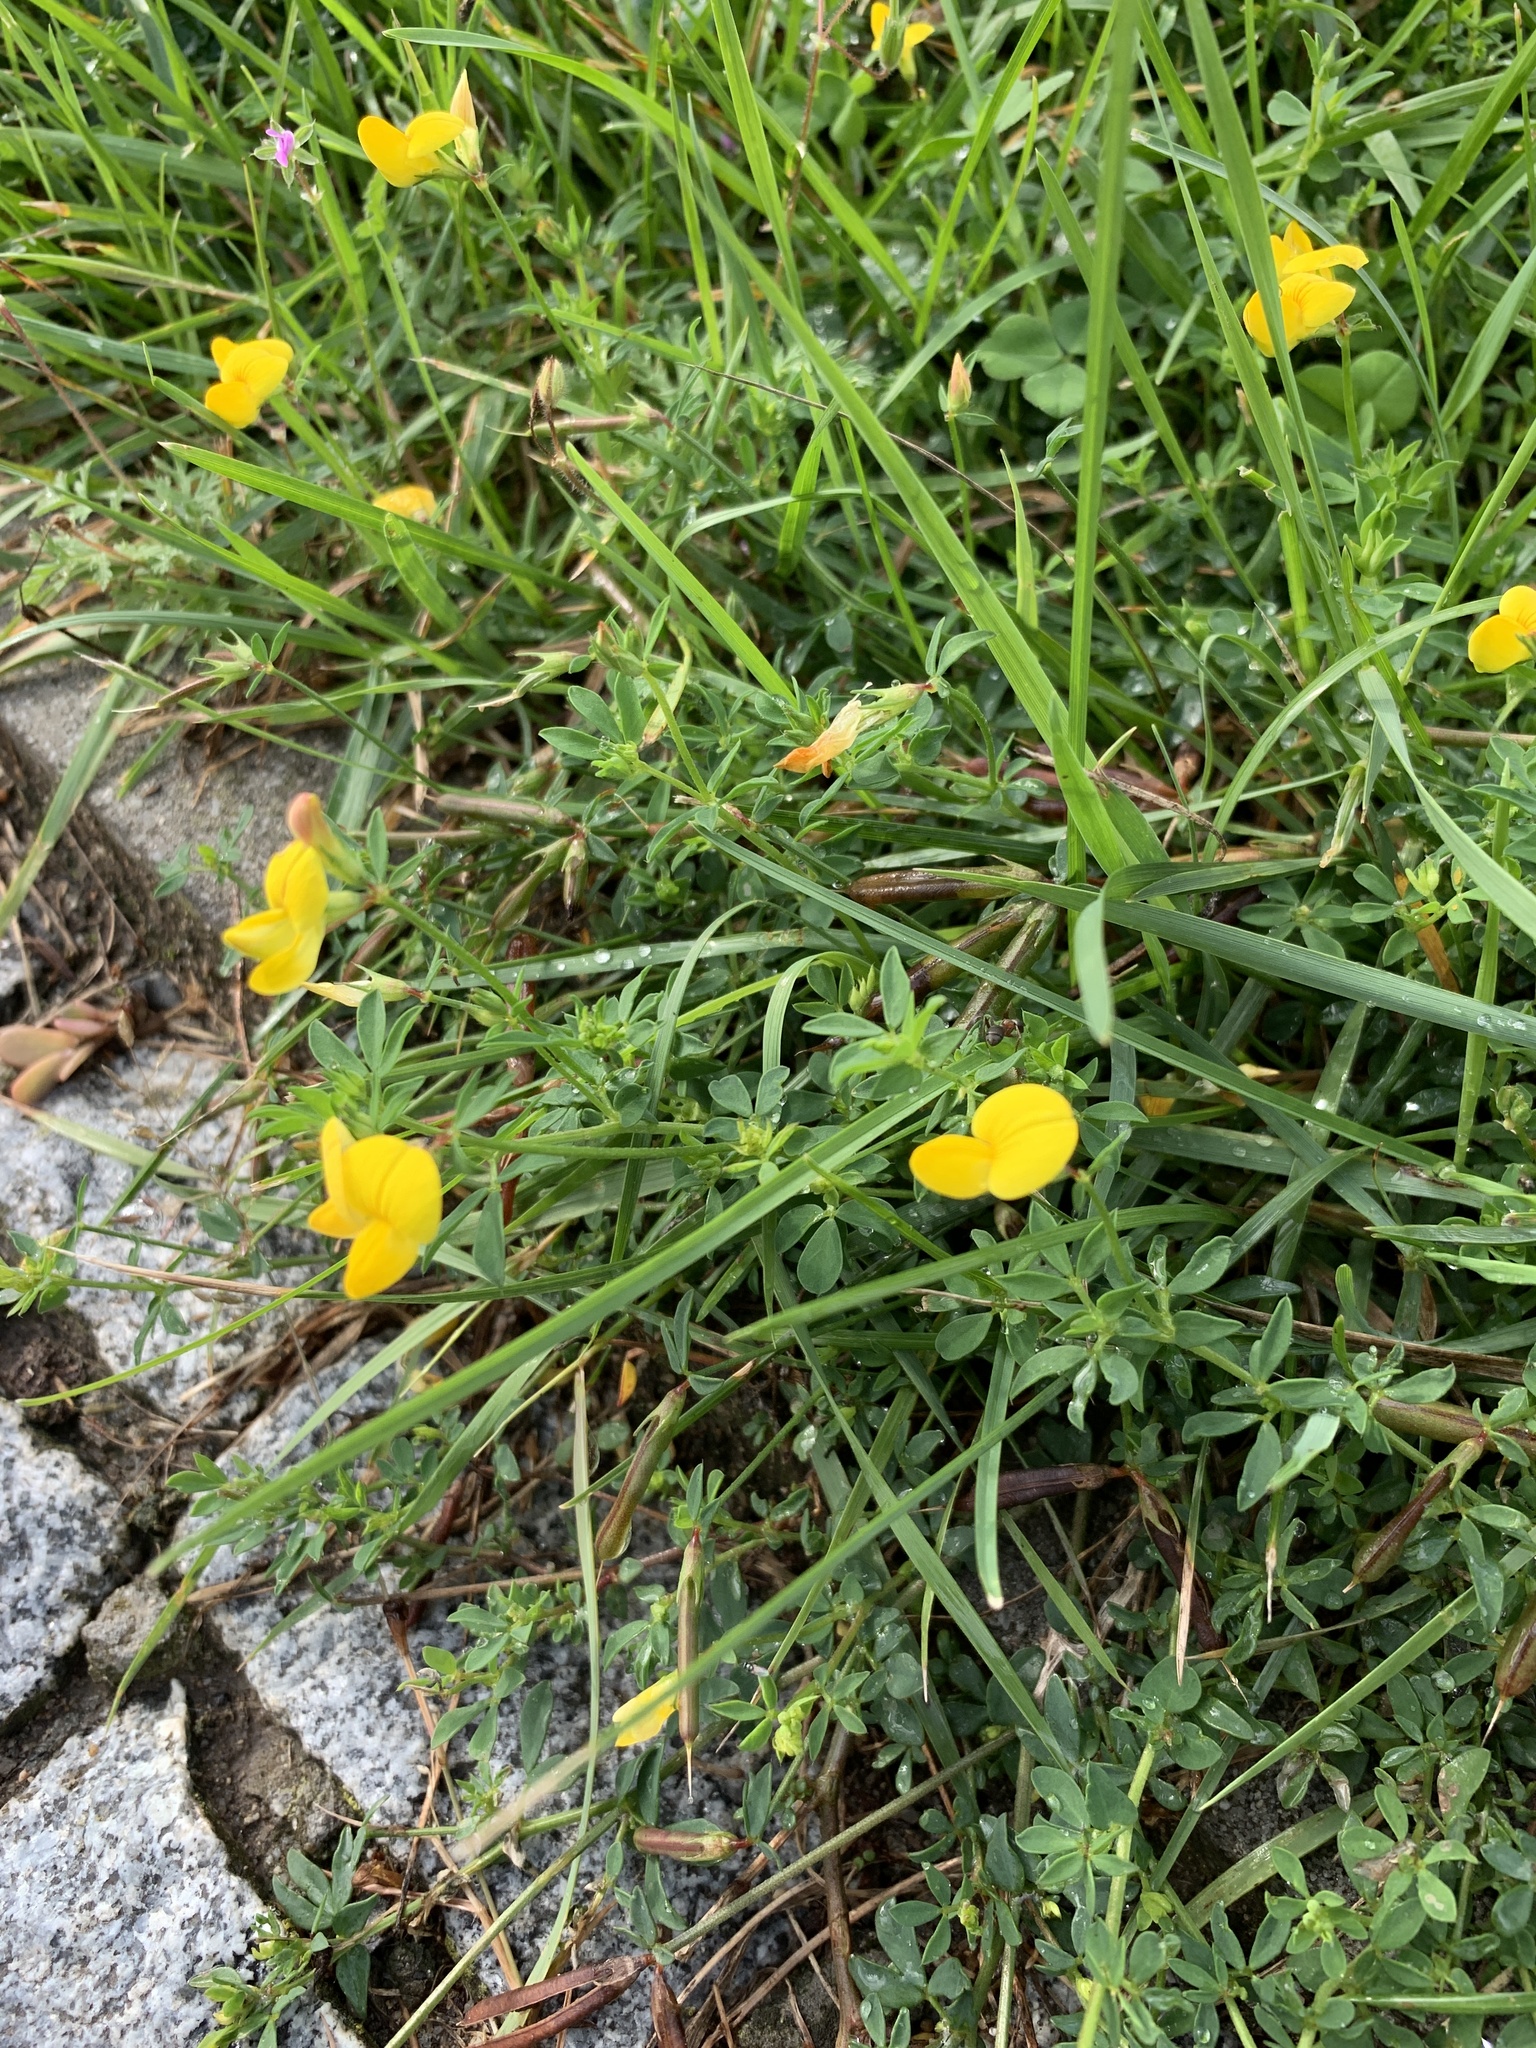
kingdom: Plantae
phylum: Tracheophyta
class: Magnoliopsida
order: Fabales
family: Fabaceae
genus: Lotus
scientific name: Lotus corniculatus
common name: Common bird's-foot-trefoil
